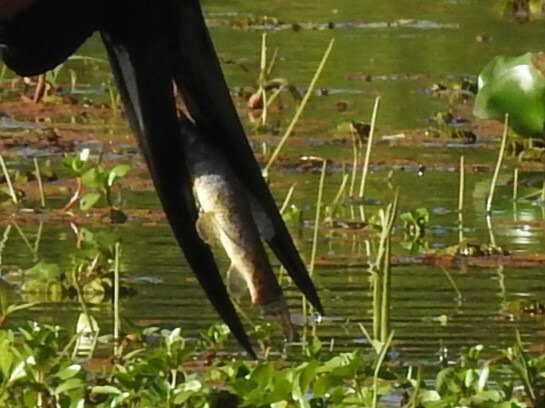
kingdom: Animalia
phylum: Chordata
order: Characiformes
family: Erythrinidae
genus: Hoplias
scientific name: Hoplias argentinensis
